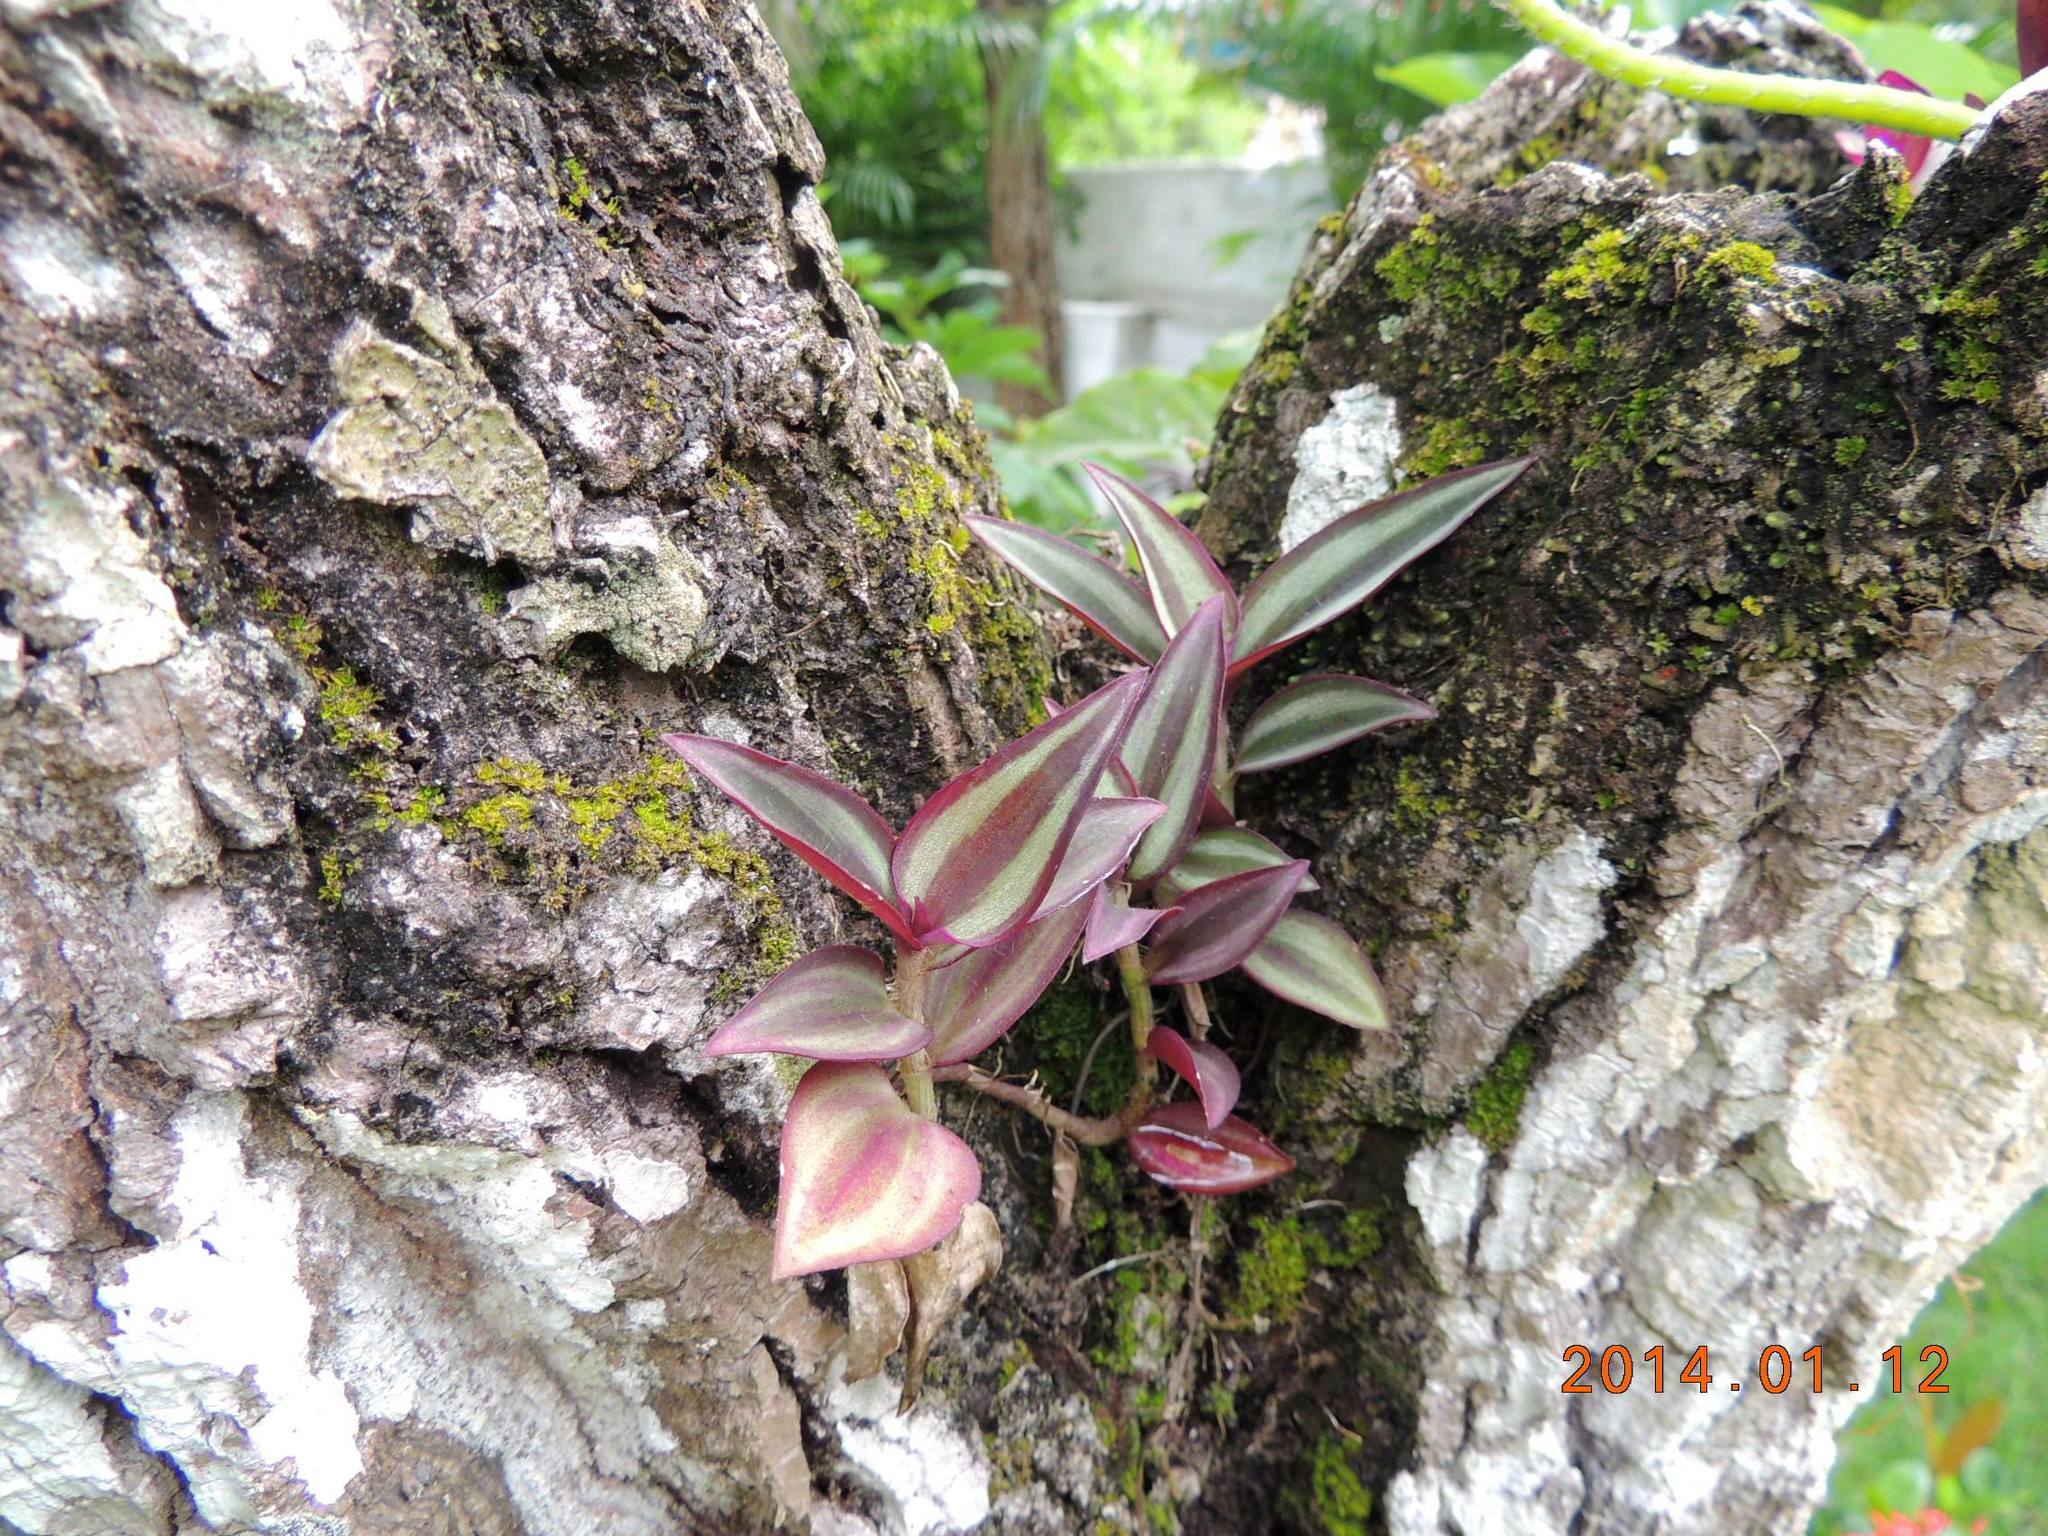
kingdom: Plantae
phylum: Tracheophyta
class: Liliopsida
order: Commelinales
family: Commelinaceae
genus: Tradescantia
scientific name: Tradescantia zebrina
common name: Inchplant
